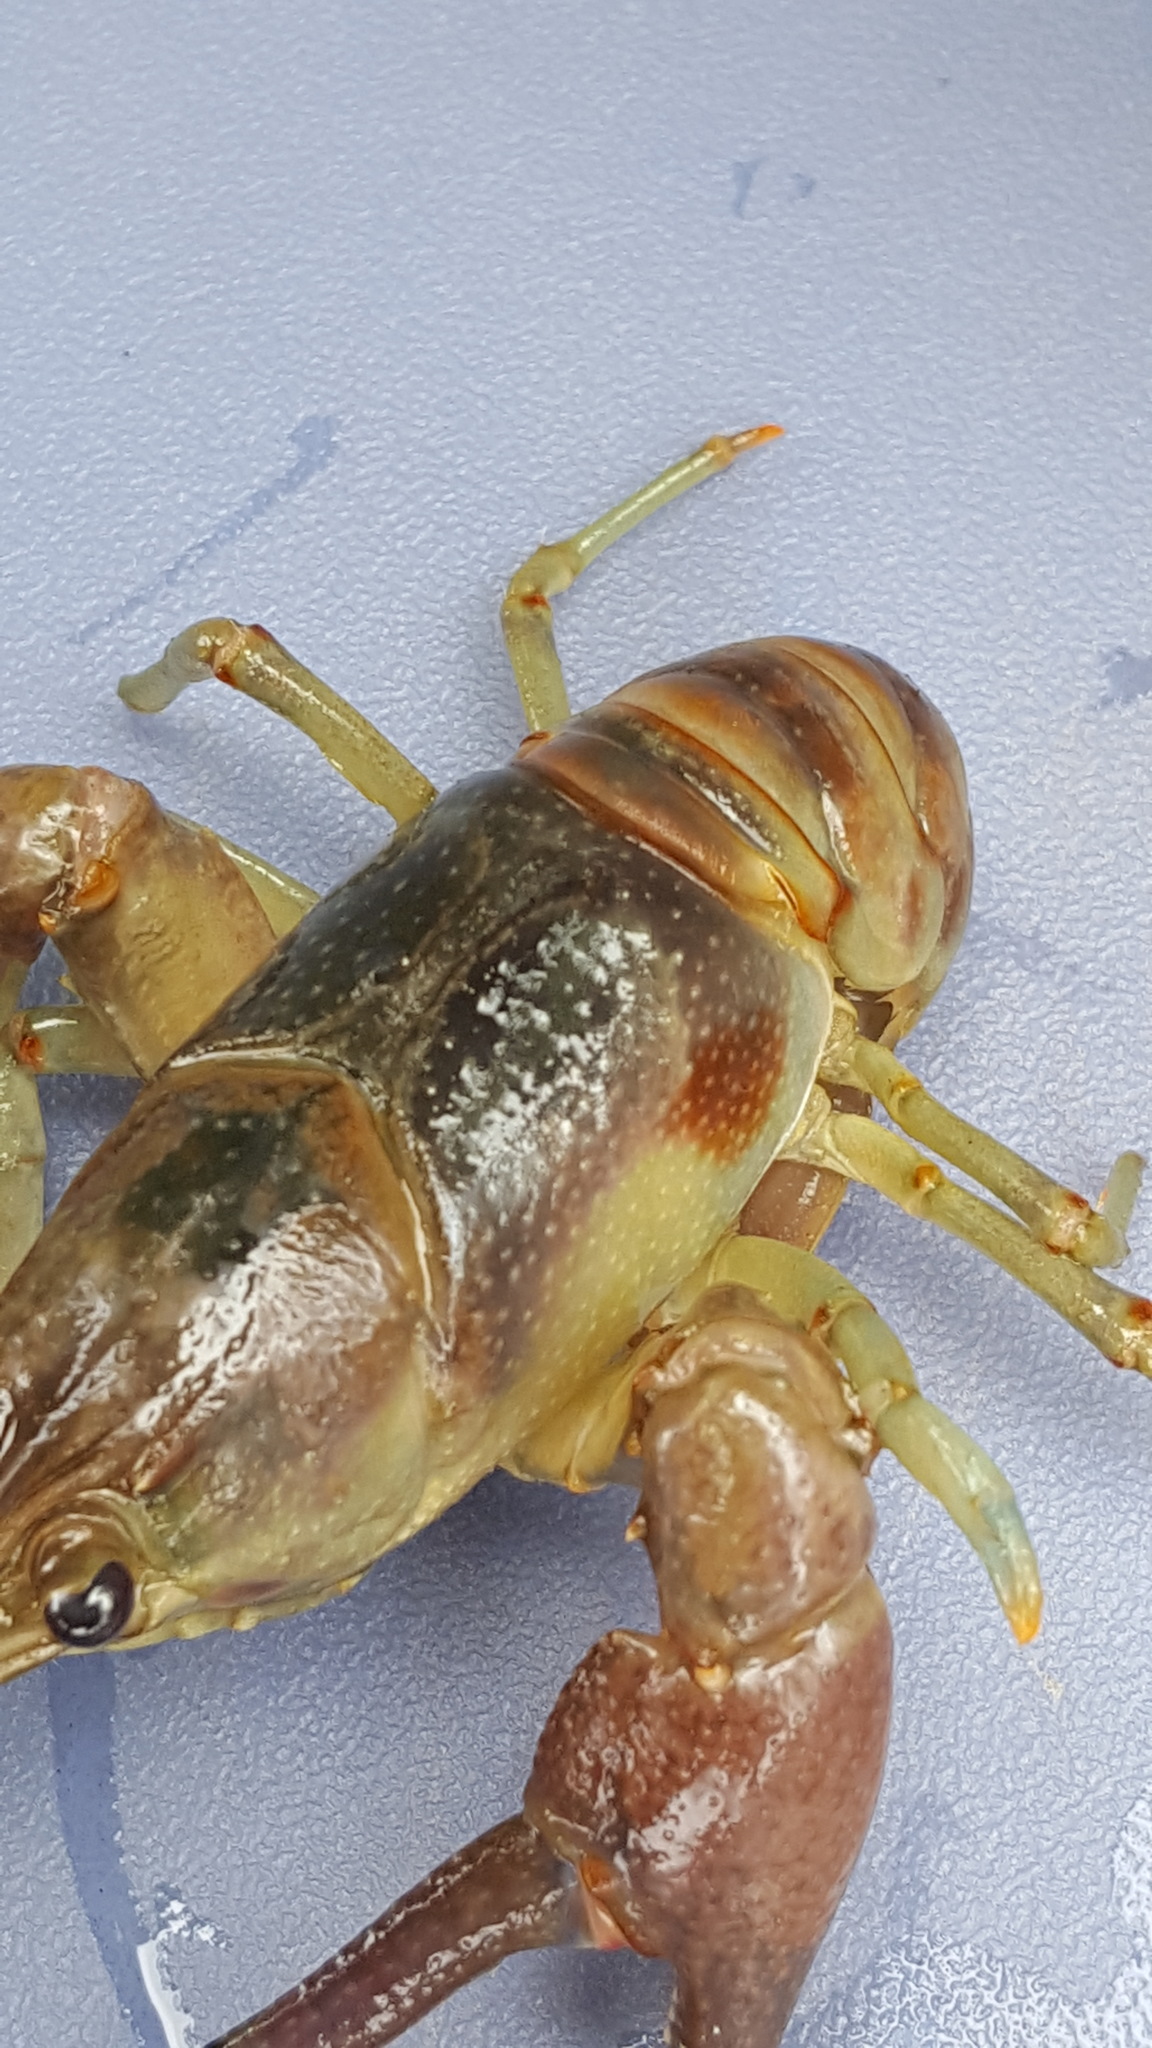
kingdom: Animalia
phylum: Arthropoda
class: Malacostraca
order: Decapoda
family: Cambaridae
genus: Faxonius
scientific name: Faxonius rusticus
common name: Rusty crayfish
